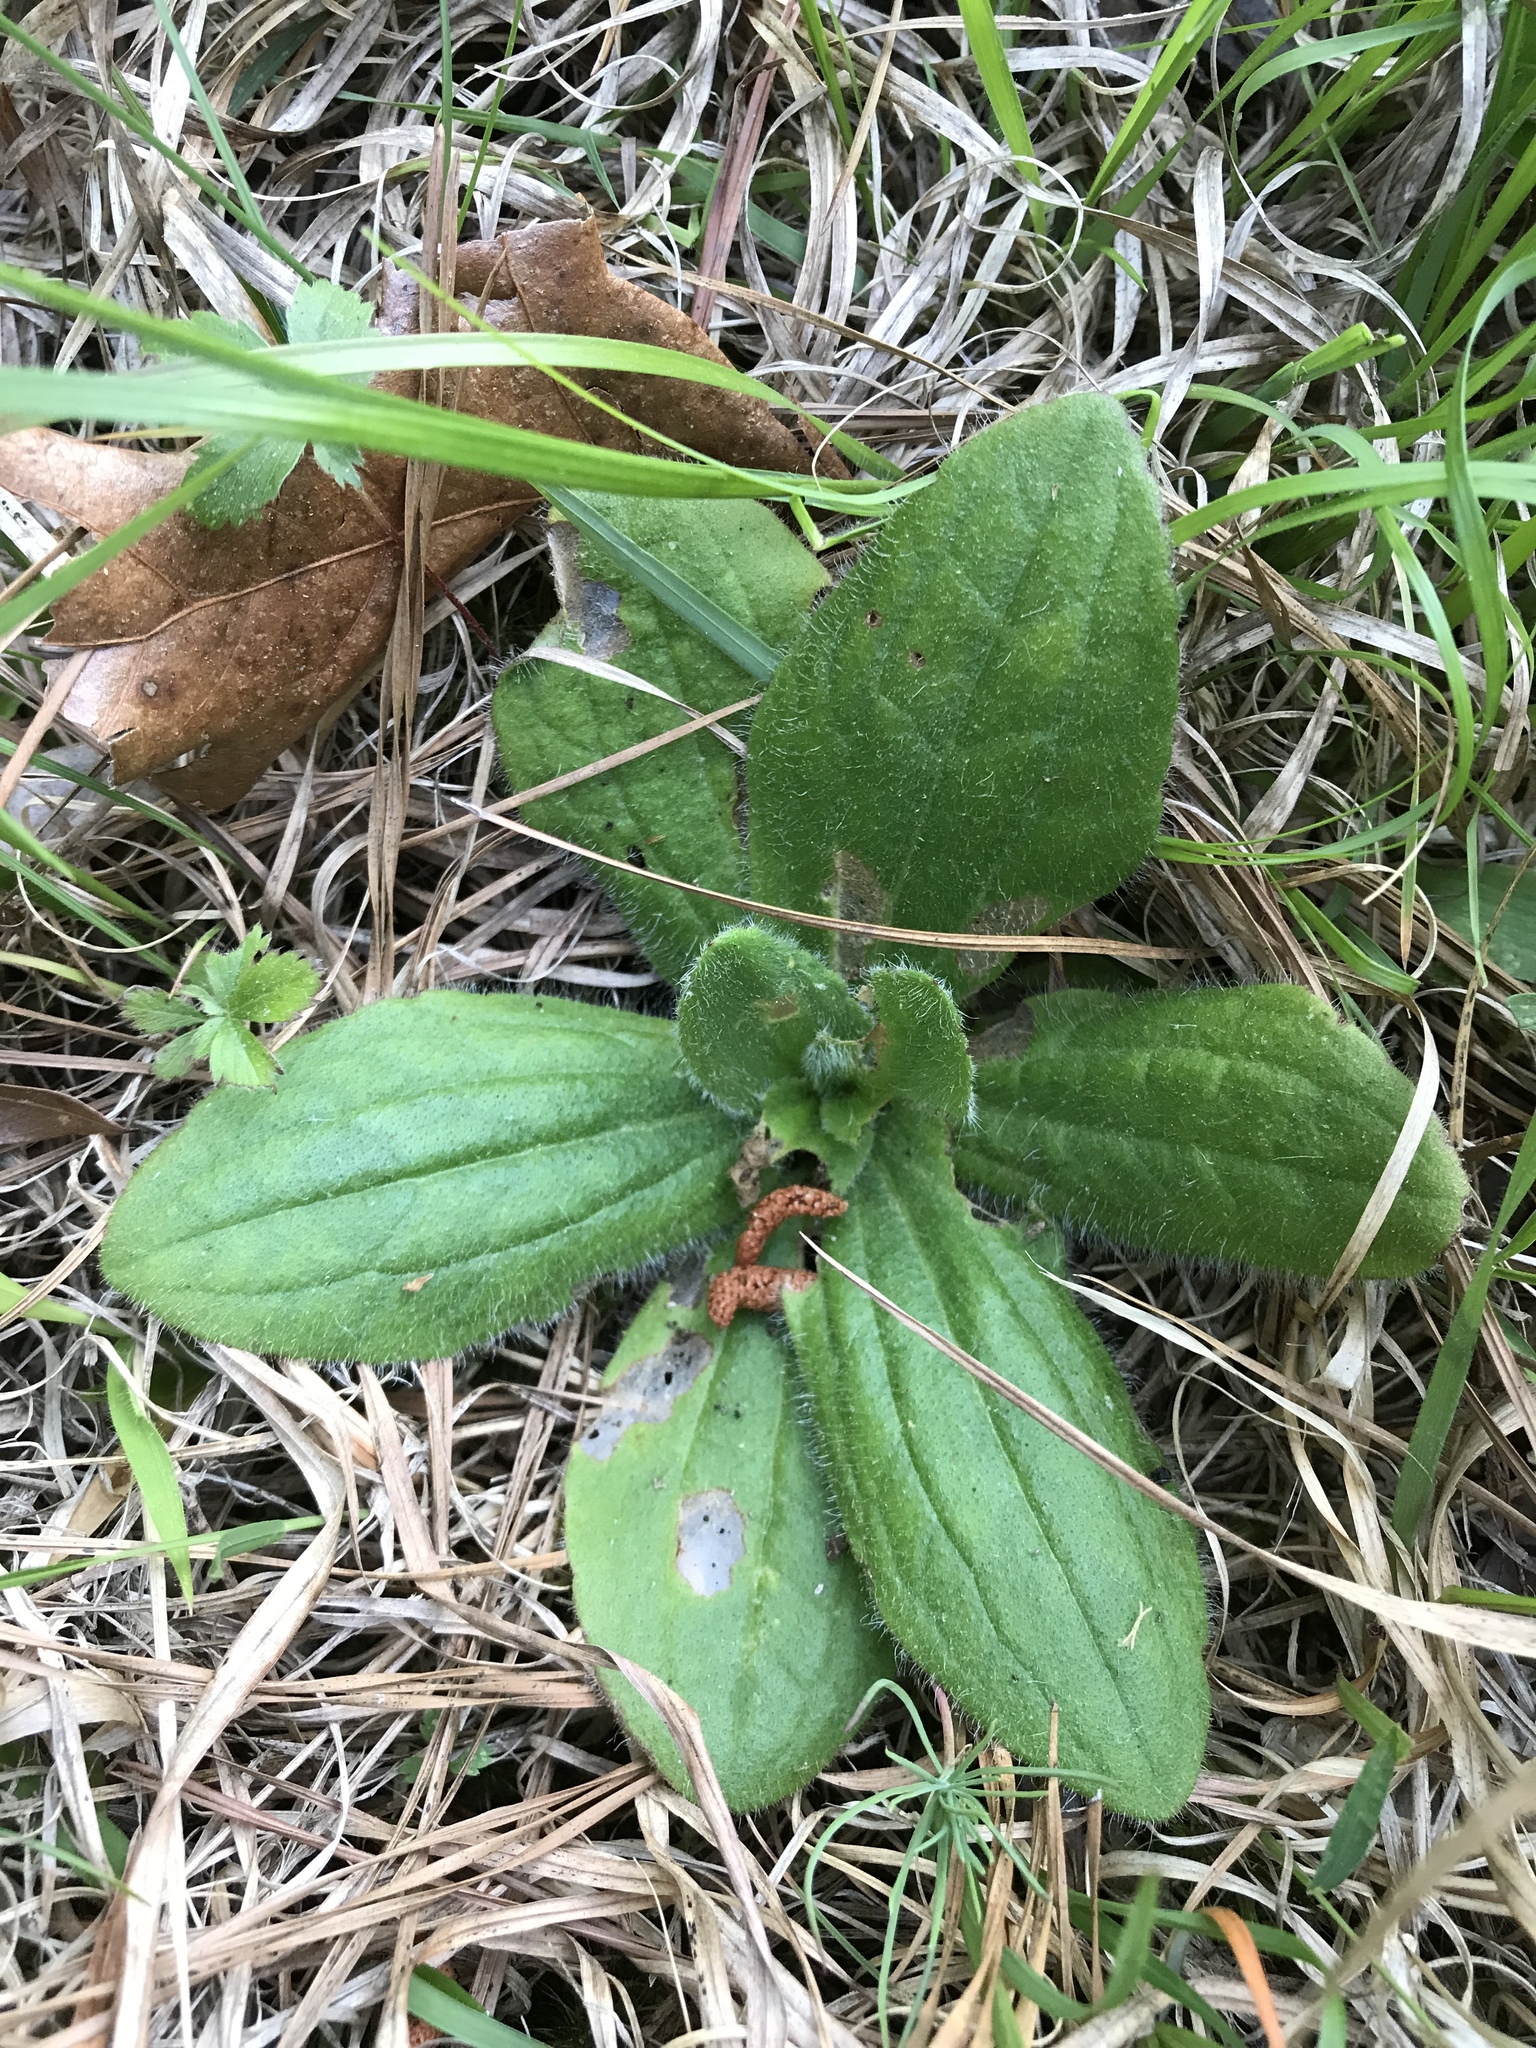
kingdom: Plantae
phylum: Tracheophyta
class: Magnoliopsida
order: Asterales
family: Asteraceae
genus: Arnica
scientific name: Arnica acaulis
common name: Common leopardbane
